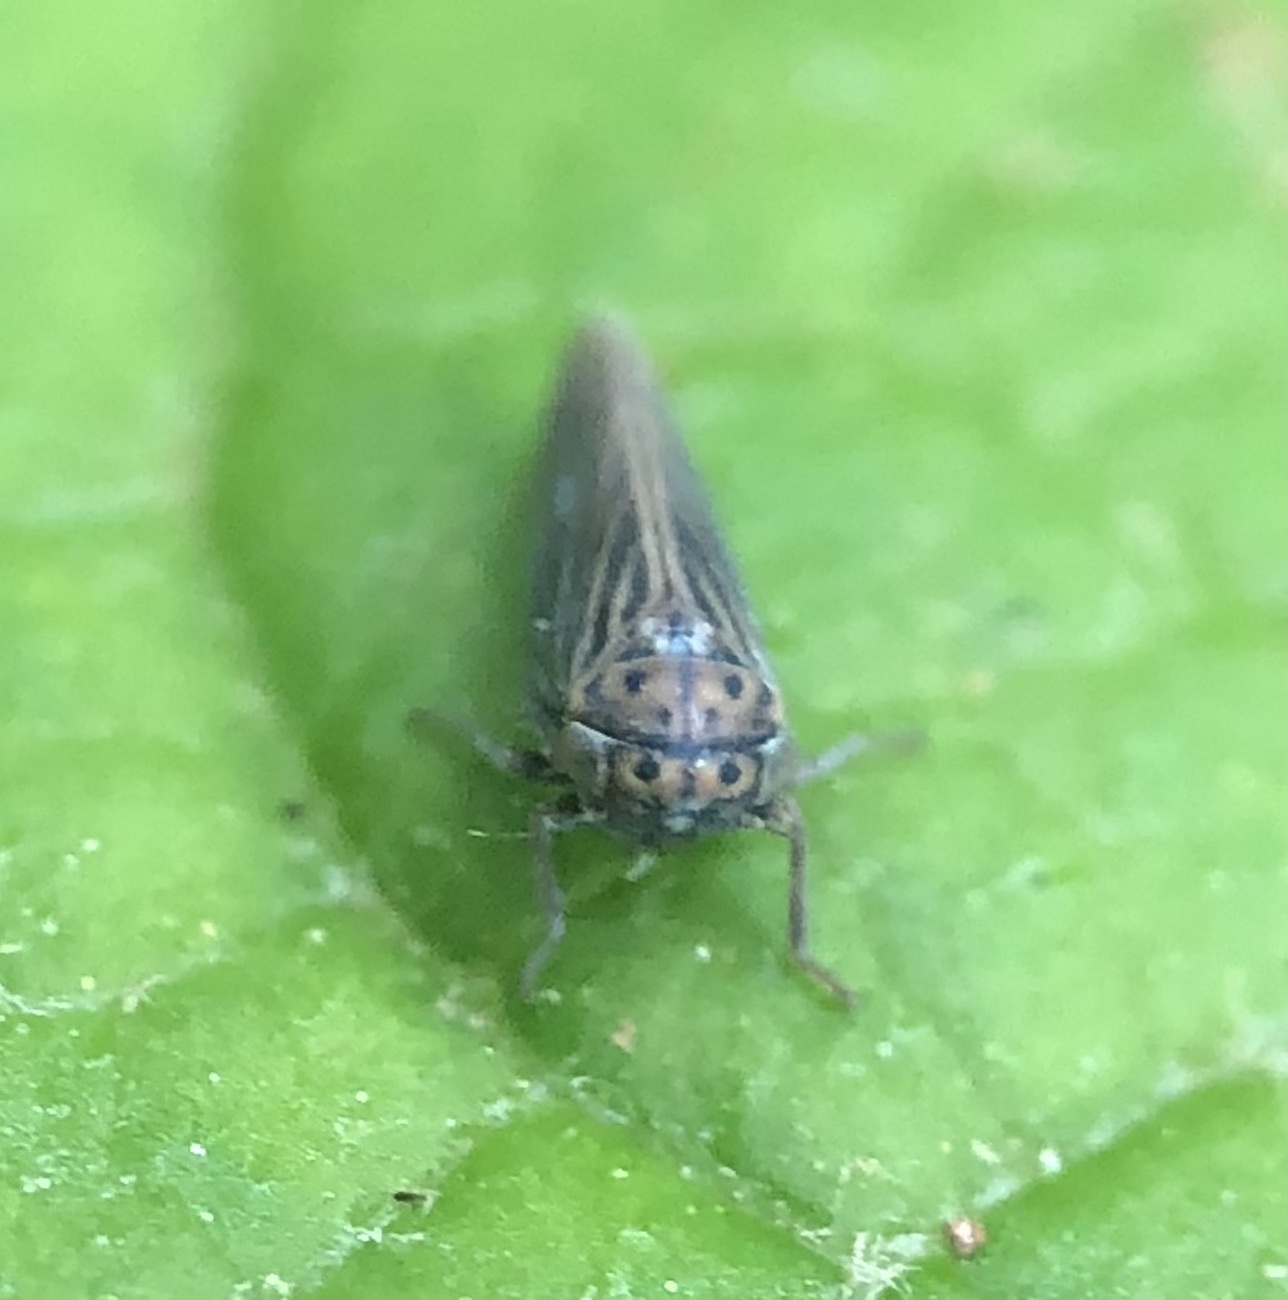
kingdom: Animalia
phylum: Arthropoda
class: Insecta
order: Hemiptera
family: Cicadellidae
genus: Agallia
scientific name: Agallia constricta
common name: The constricted leafhopper
